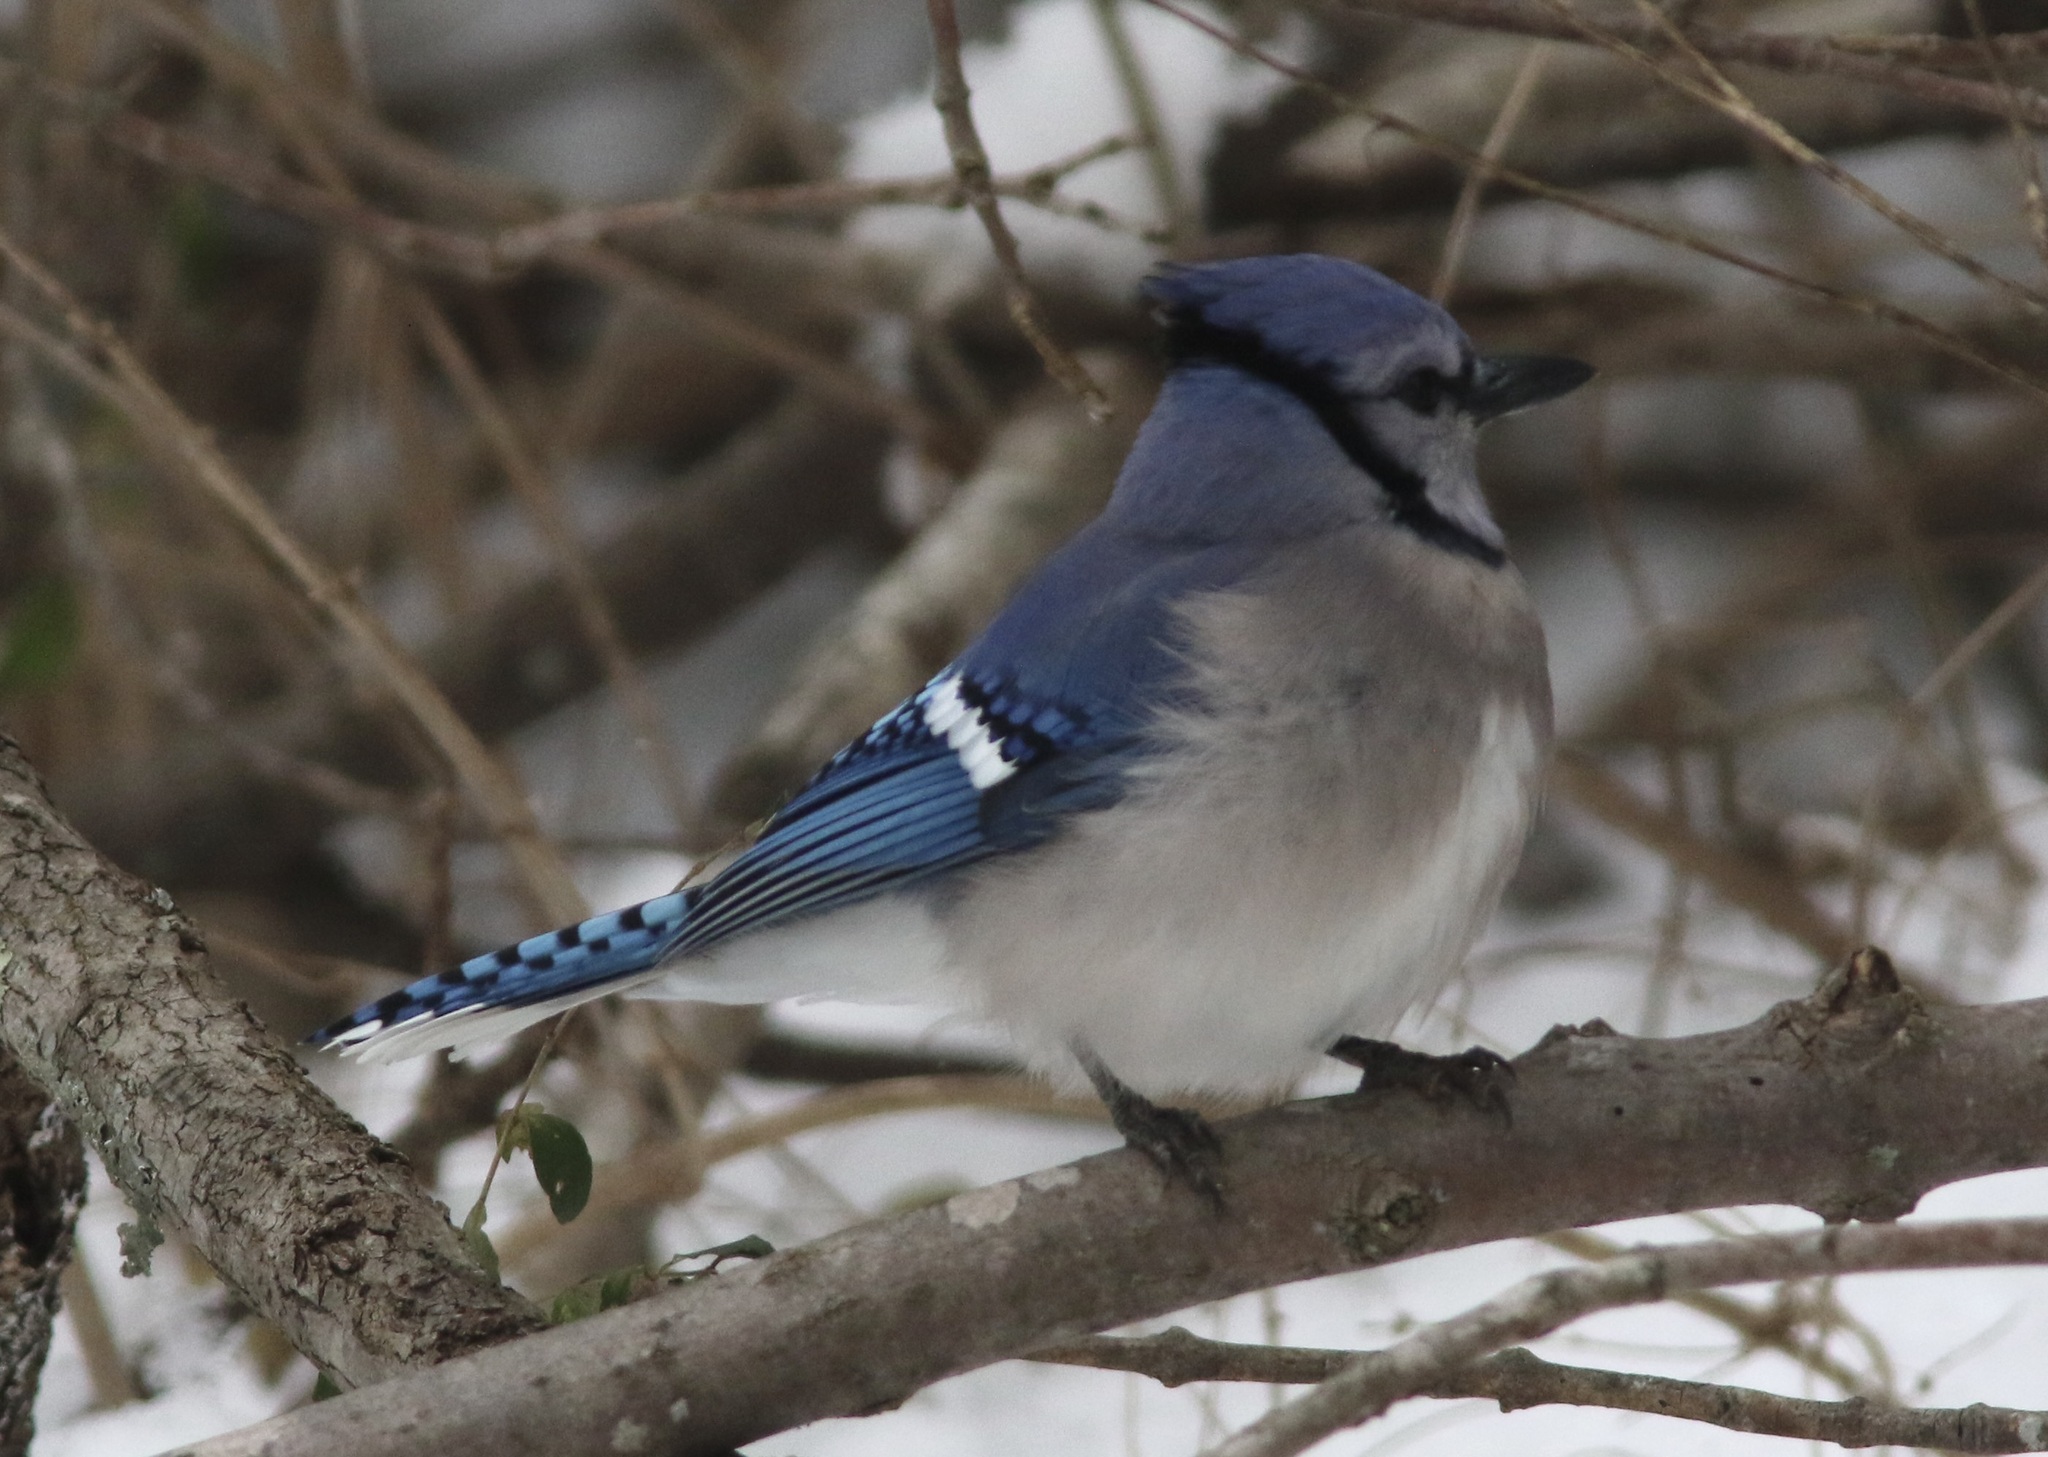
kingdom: Animalia
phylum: Chordata
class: Aves
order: Passeriformes
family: Corvidae
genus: Cyanocitta
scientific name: Cyanocitta cristata
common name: Blue jay
